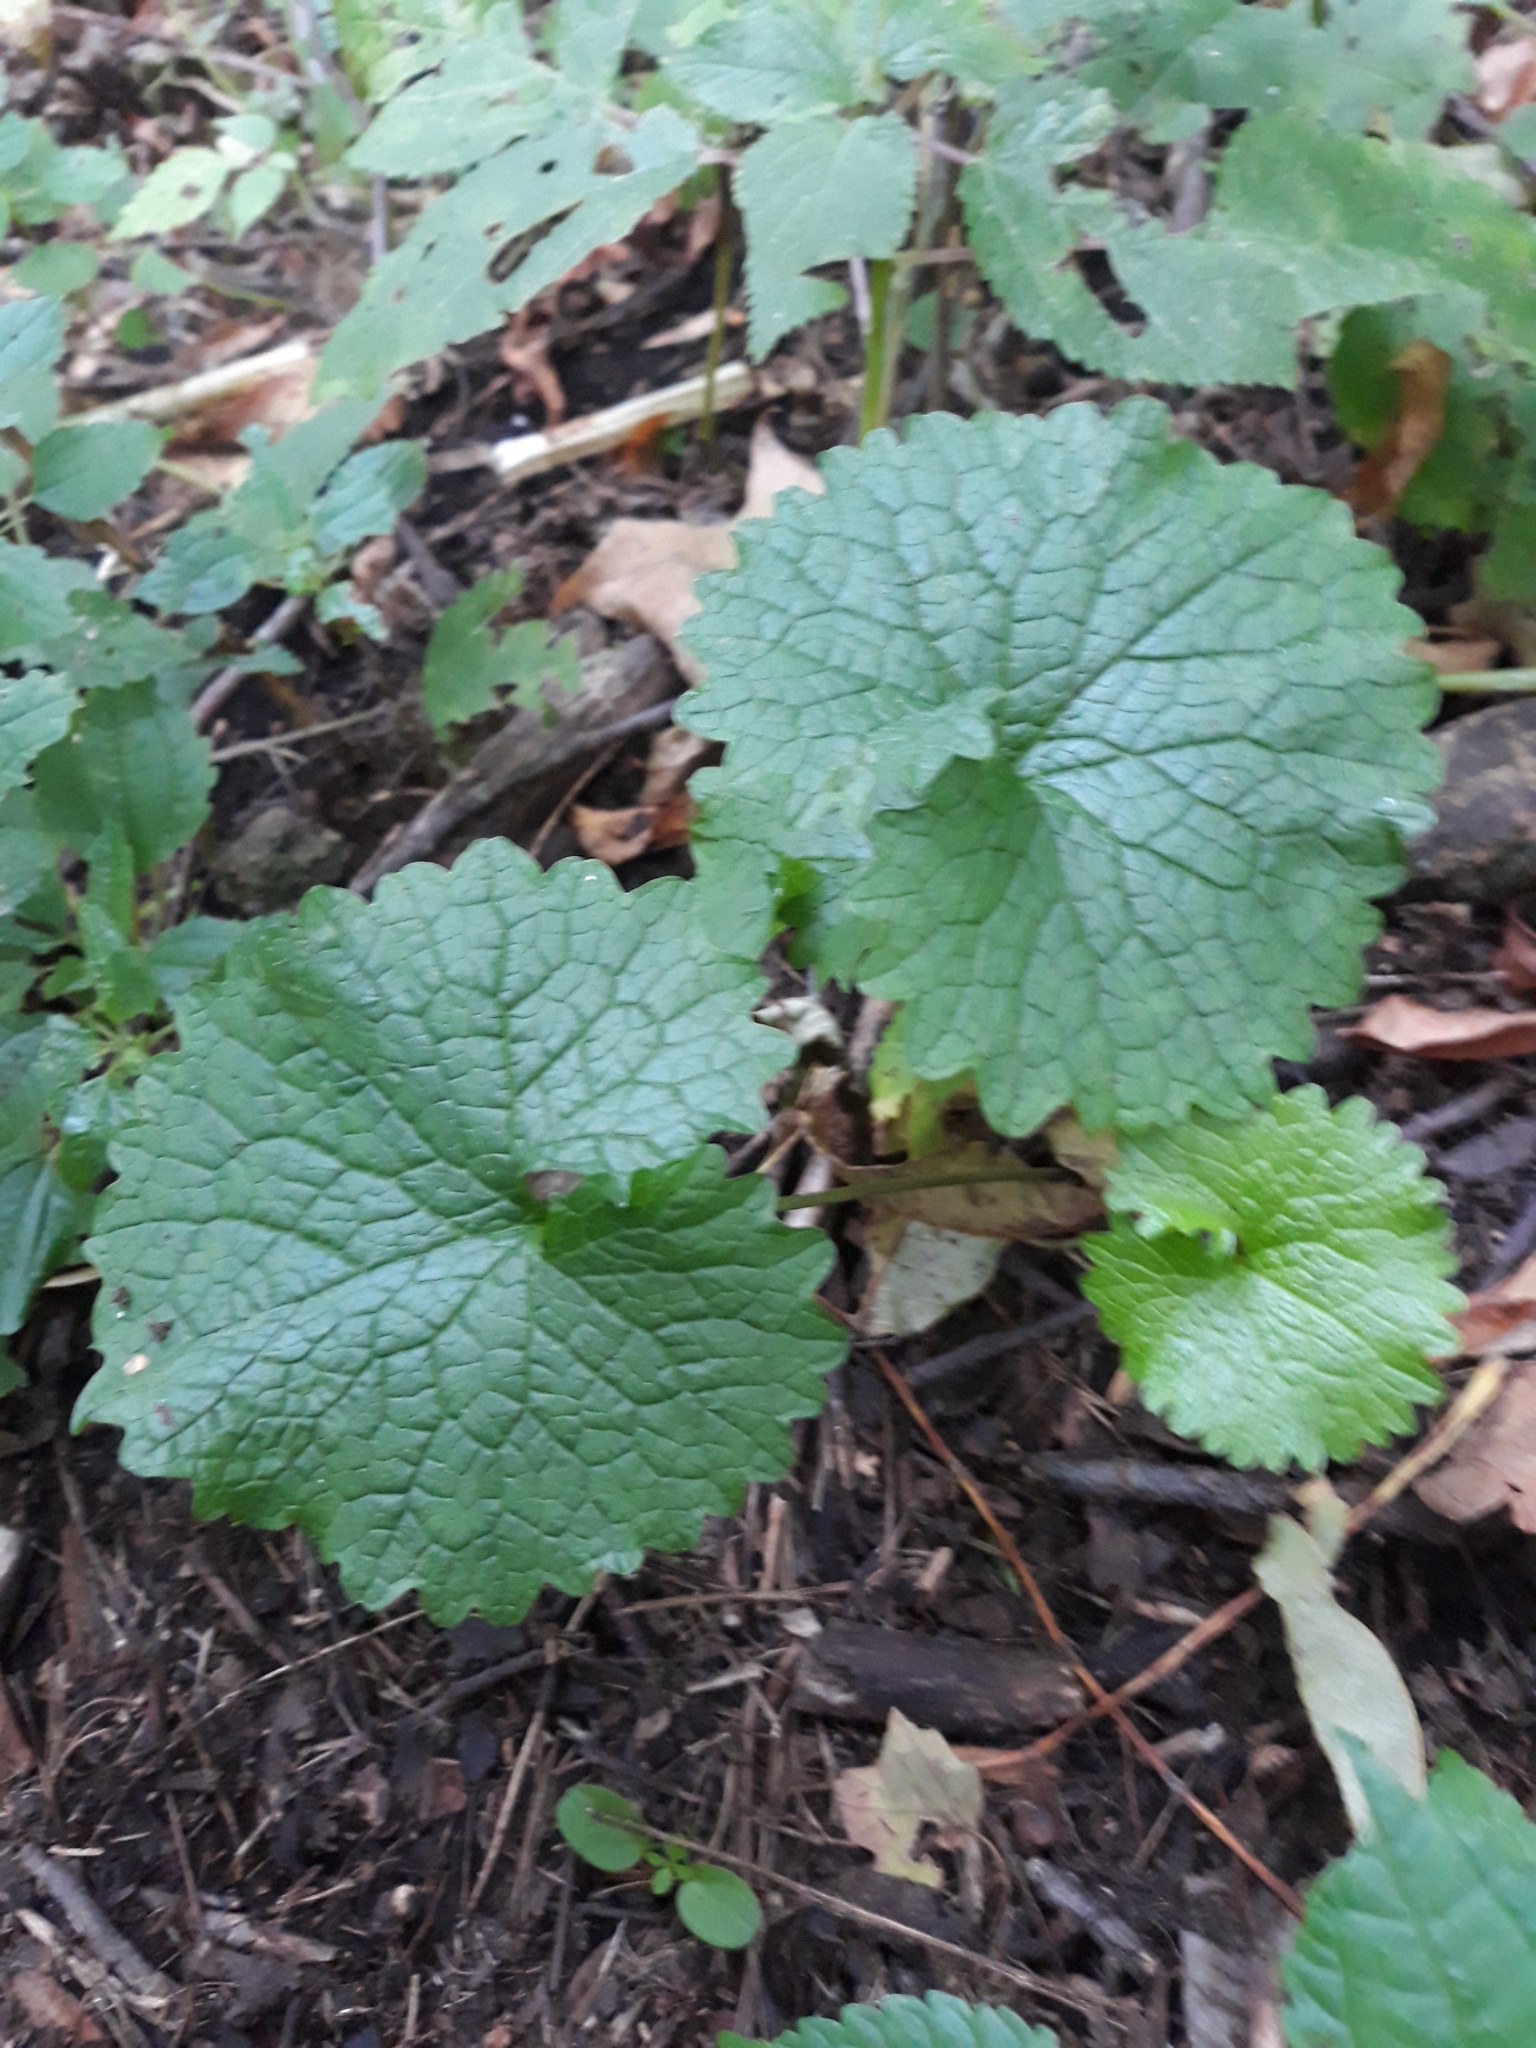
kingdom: Plantae
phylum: Tracheophyta
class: Magnoliopsida
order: Brassicales
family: Brassicaceae
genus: Alliaria
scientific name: Alliaria petiolata
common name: Garlic mustard
